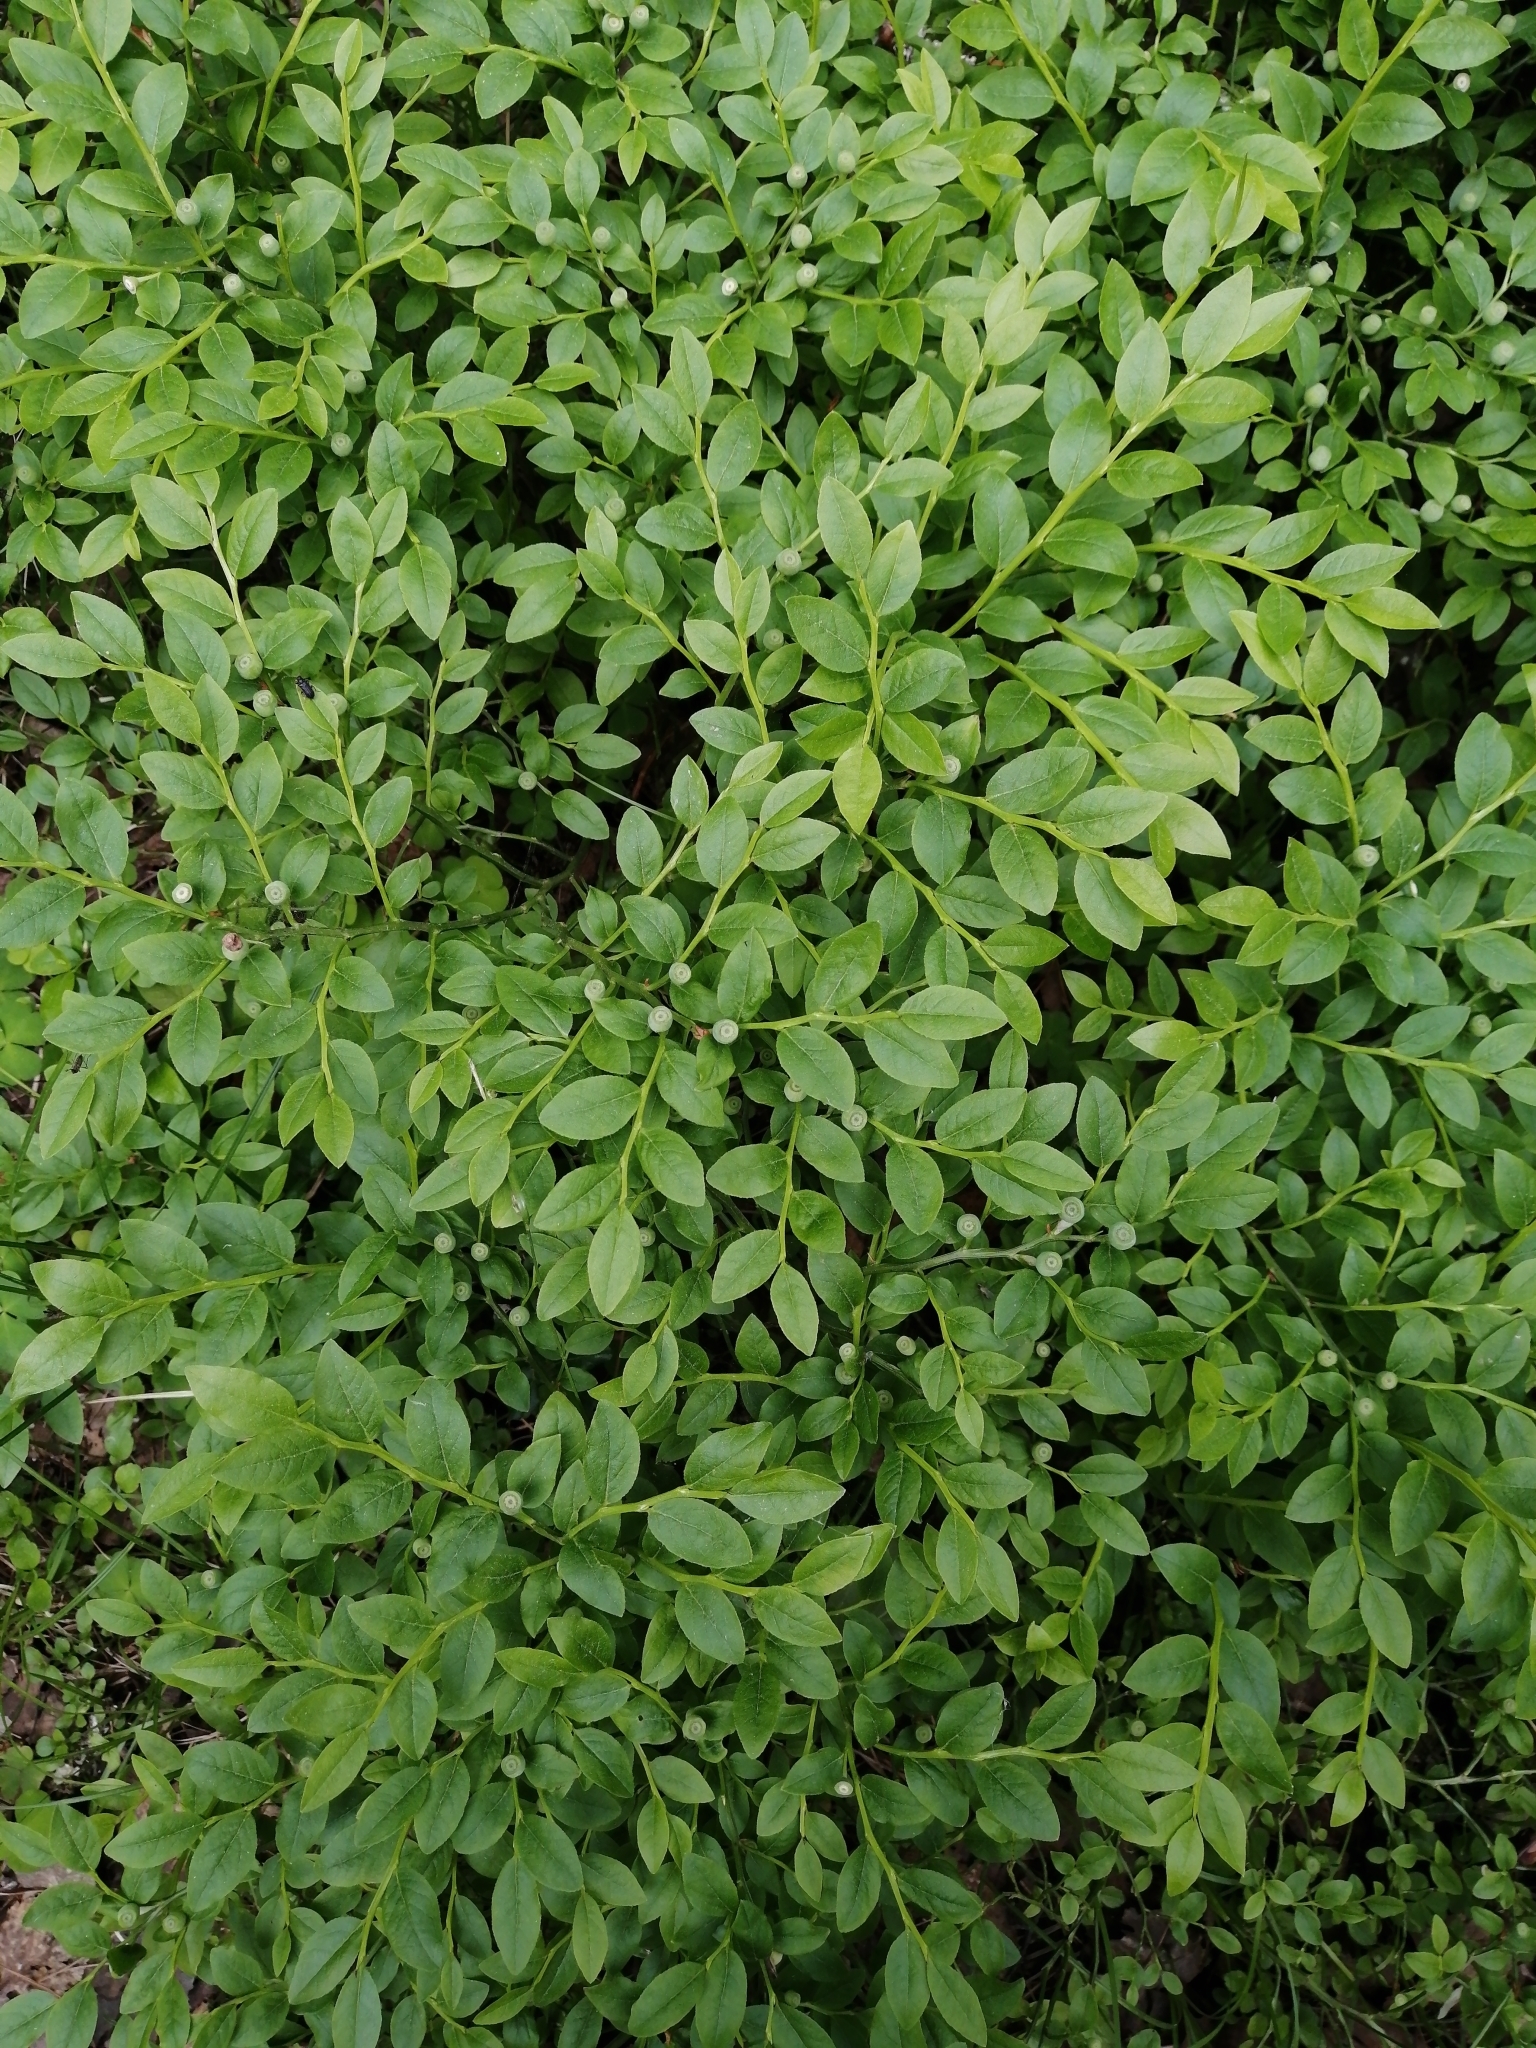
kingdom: Plantae
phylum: Tracheophyta
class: Magnoliopsida
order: Ericales
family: Ericaceae
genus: Vaccinium
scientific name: Vaccinium myrtillus
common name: Bilberry
